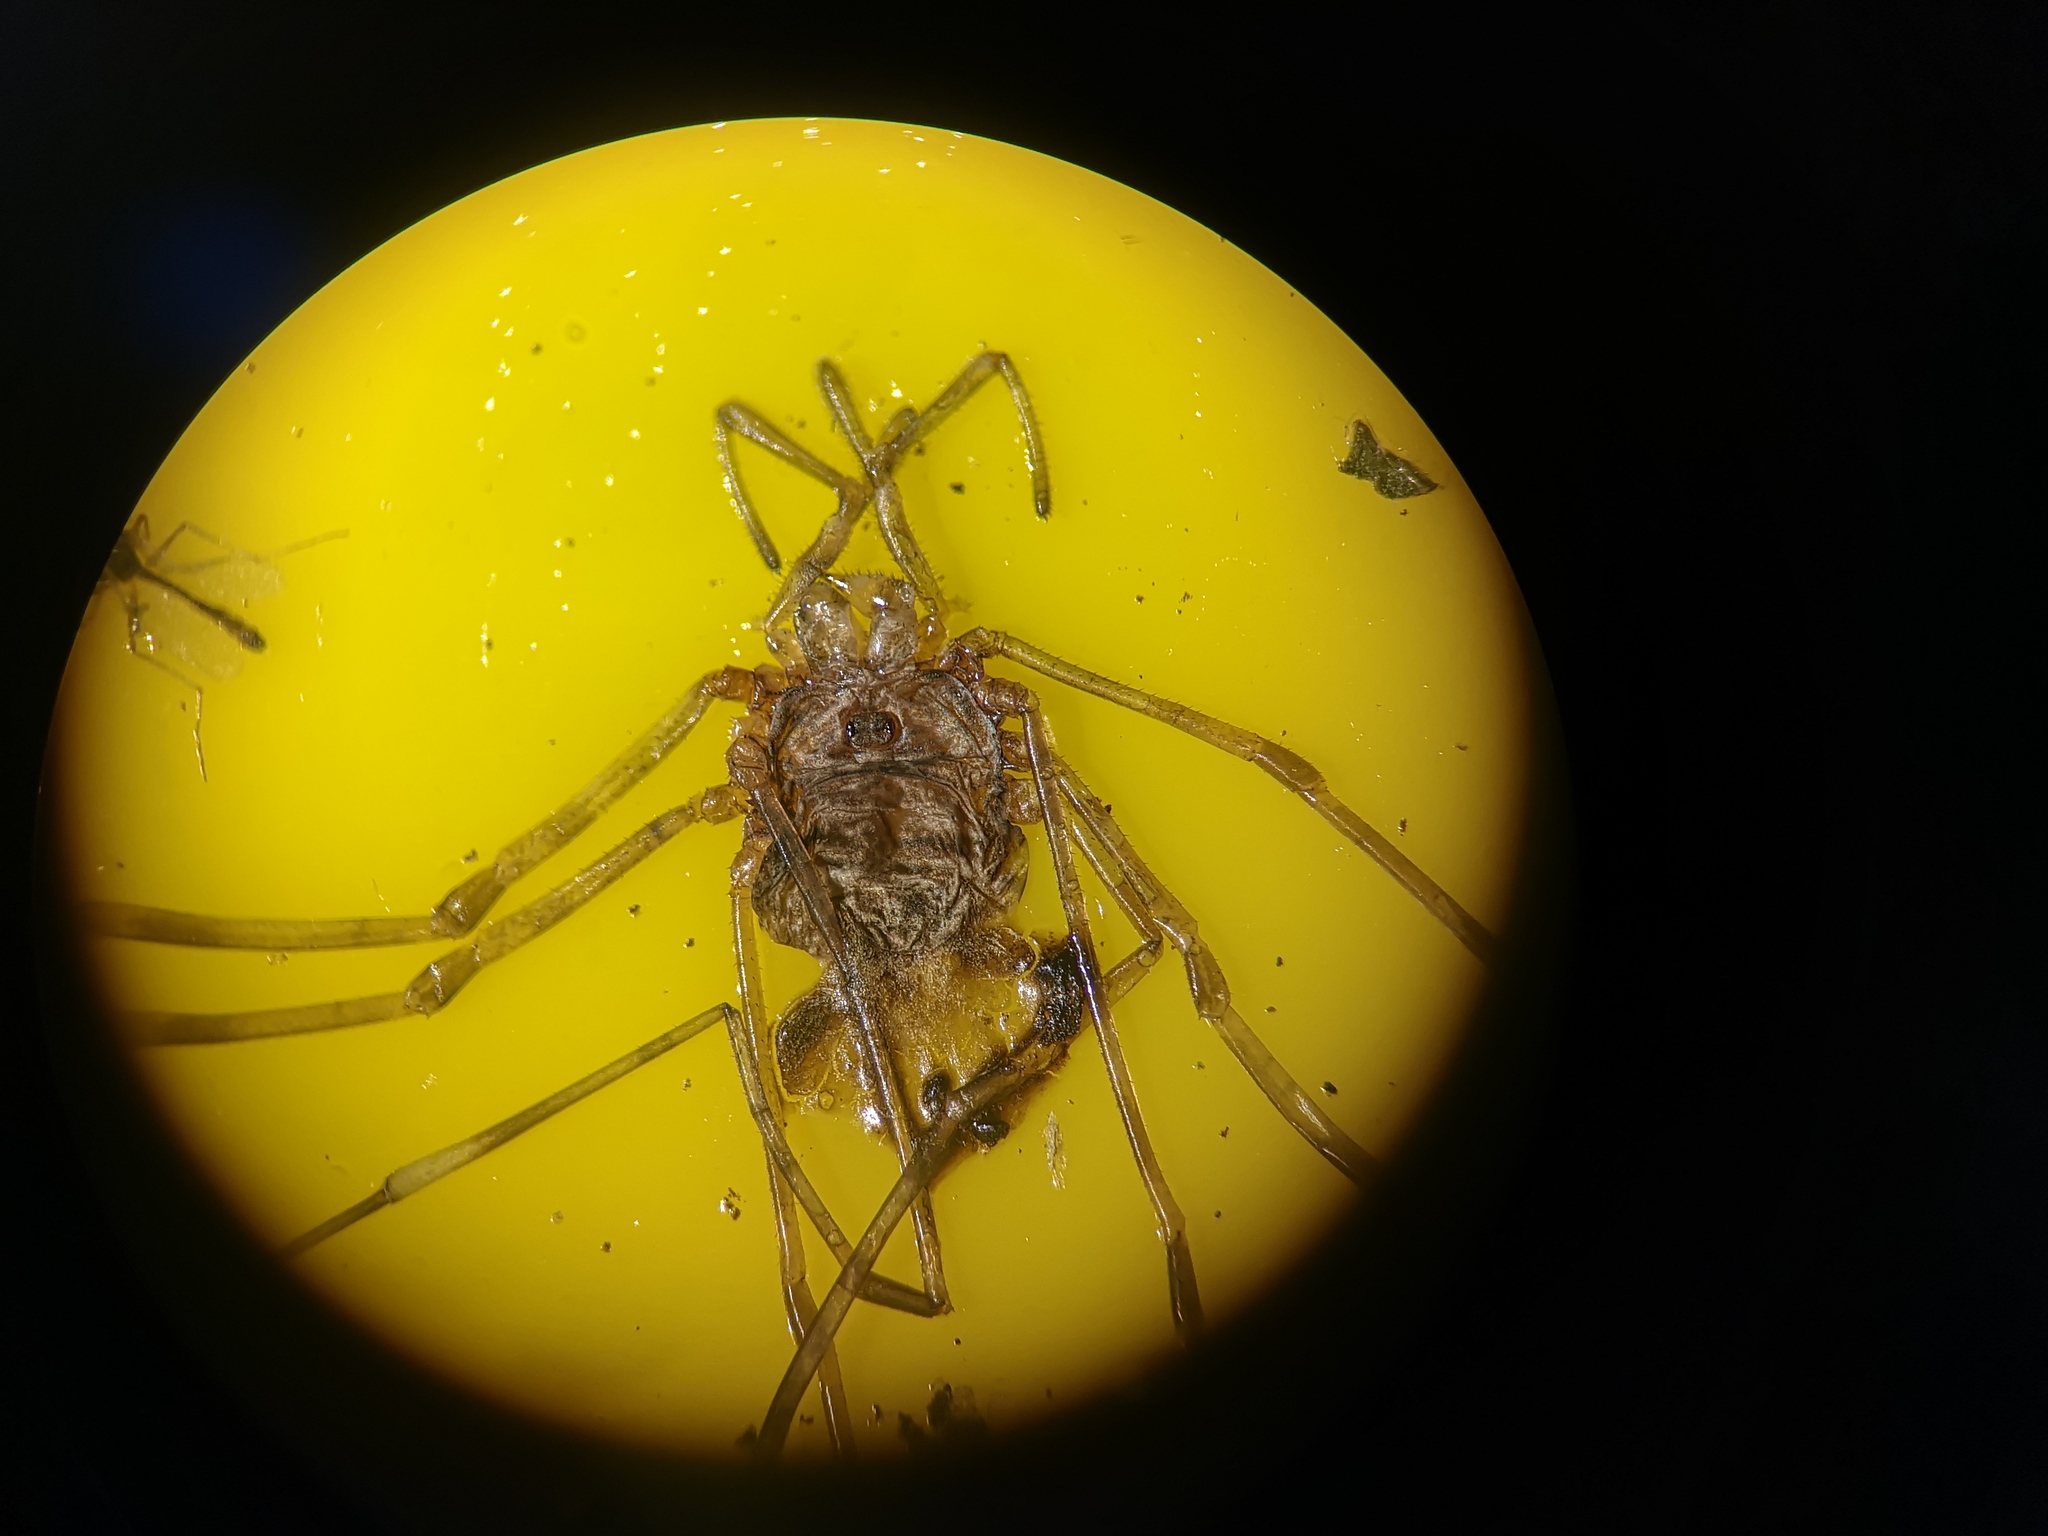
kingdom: Animalia
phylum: Arthropoda
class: Arachnida
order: Opiliones
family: Phalangiidae
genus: Dicranopalpus
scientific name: Dicranopalpus ramosus
